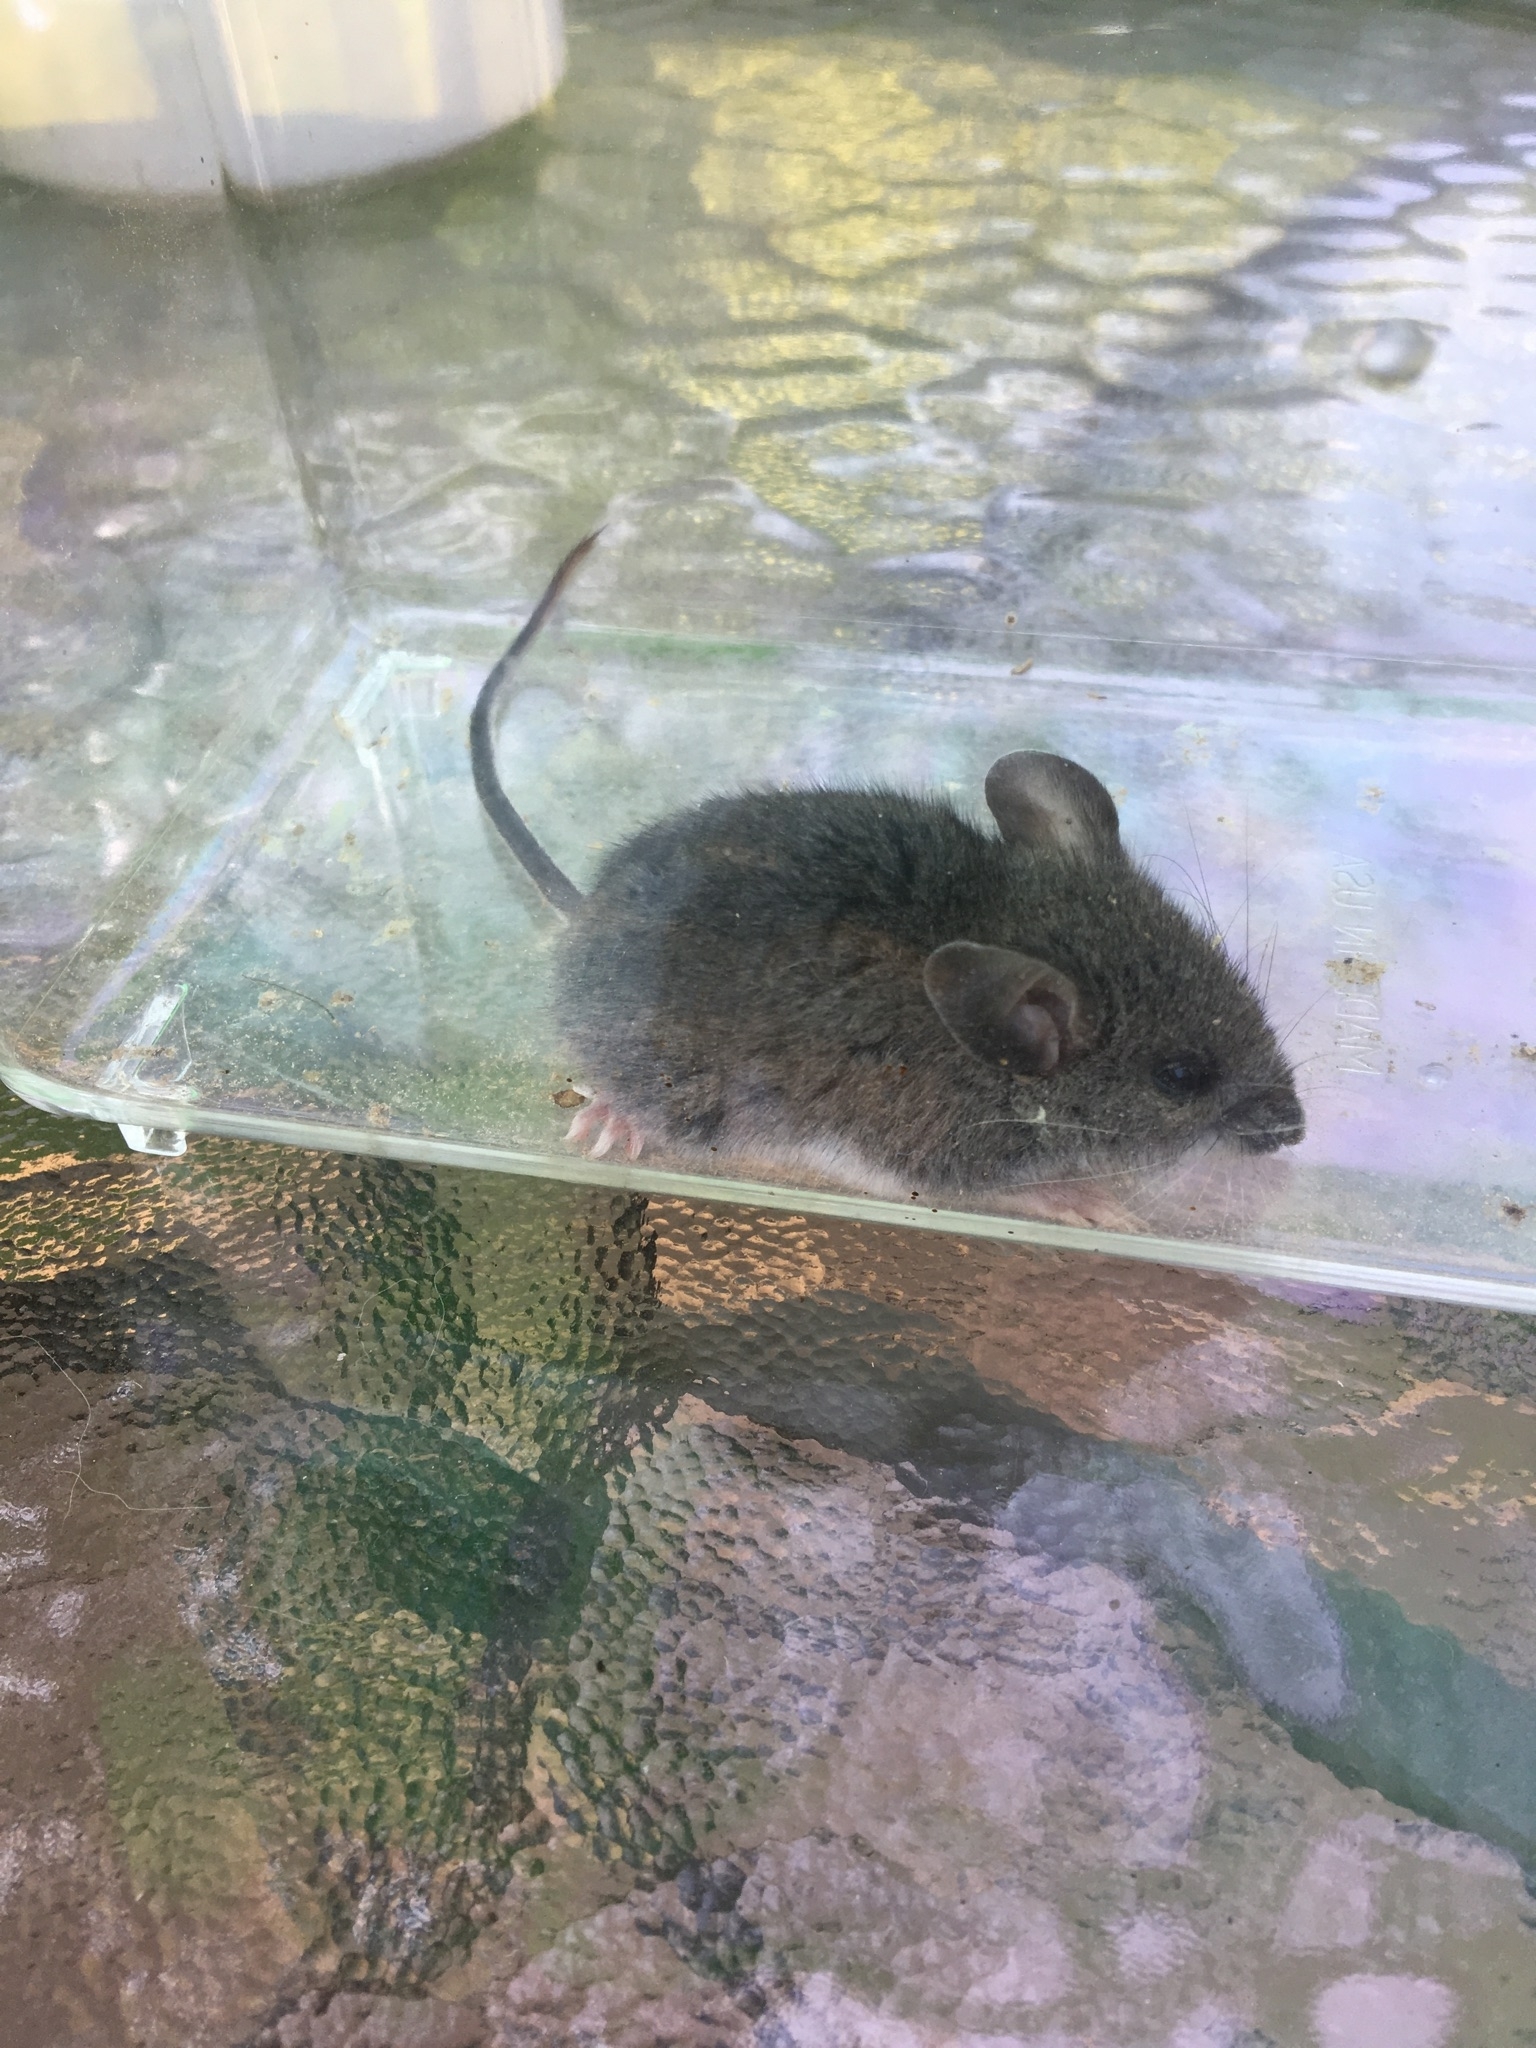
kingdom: Animalia
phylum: Chordata
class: Mammalia
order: Rodentia
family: Muridae
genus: Mus
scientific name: Mus musculus
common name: House mouse
